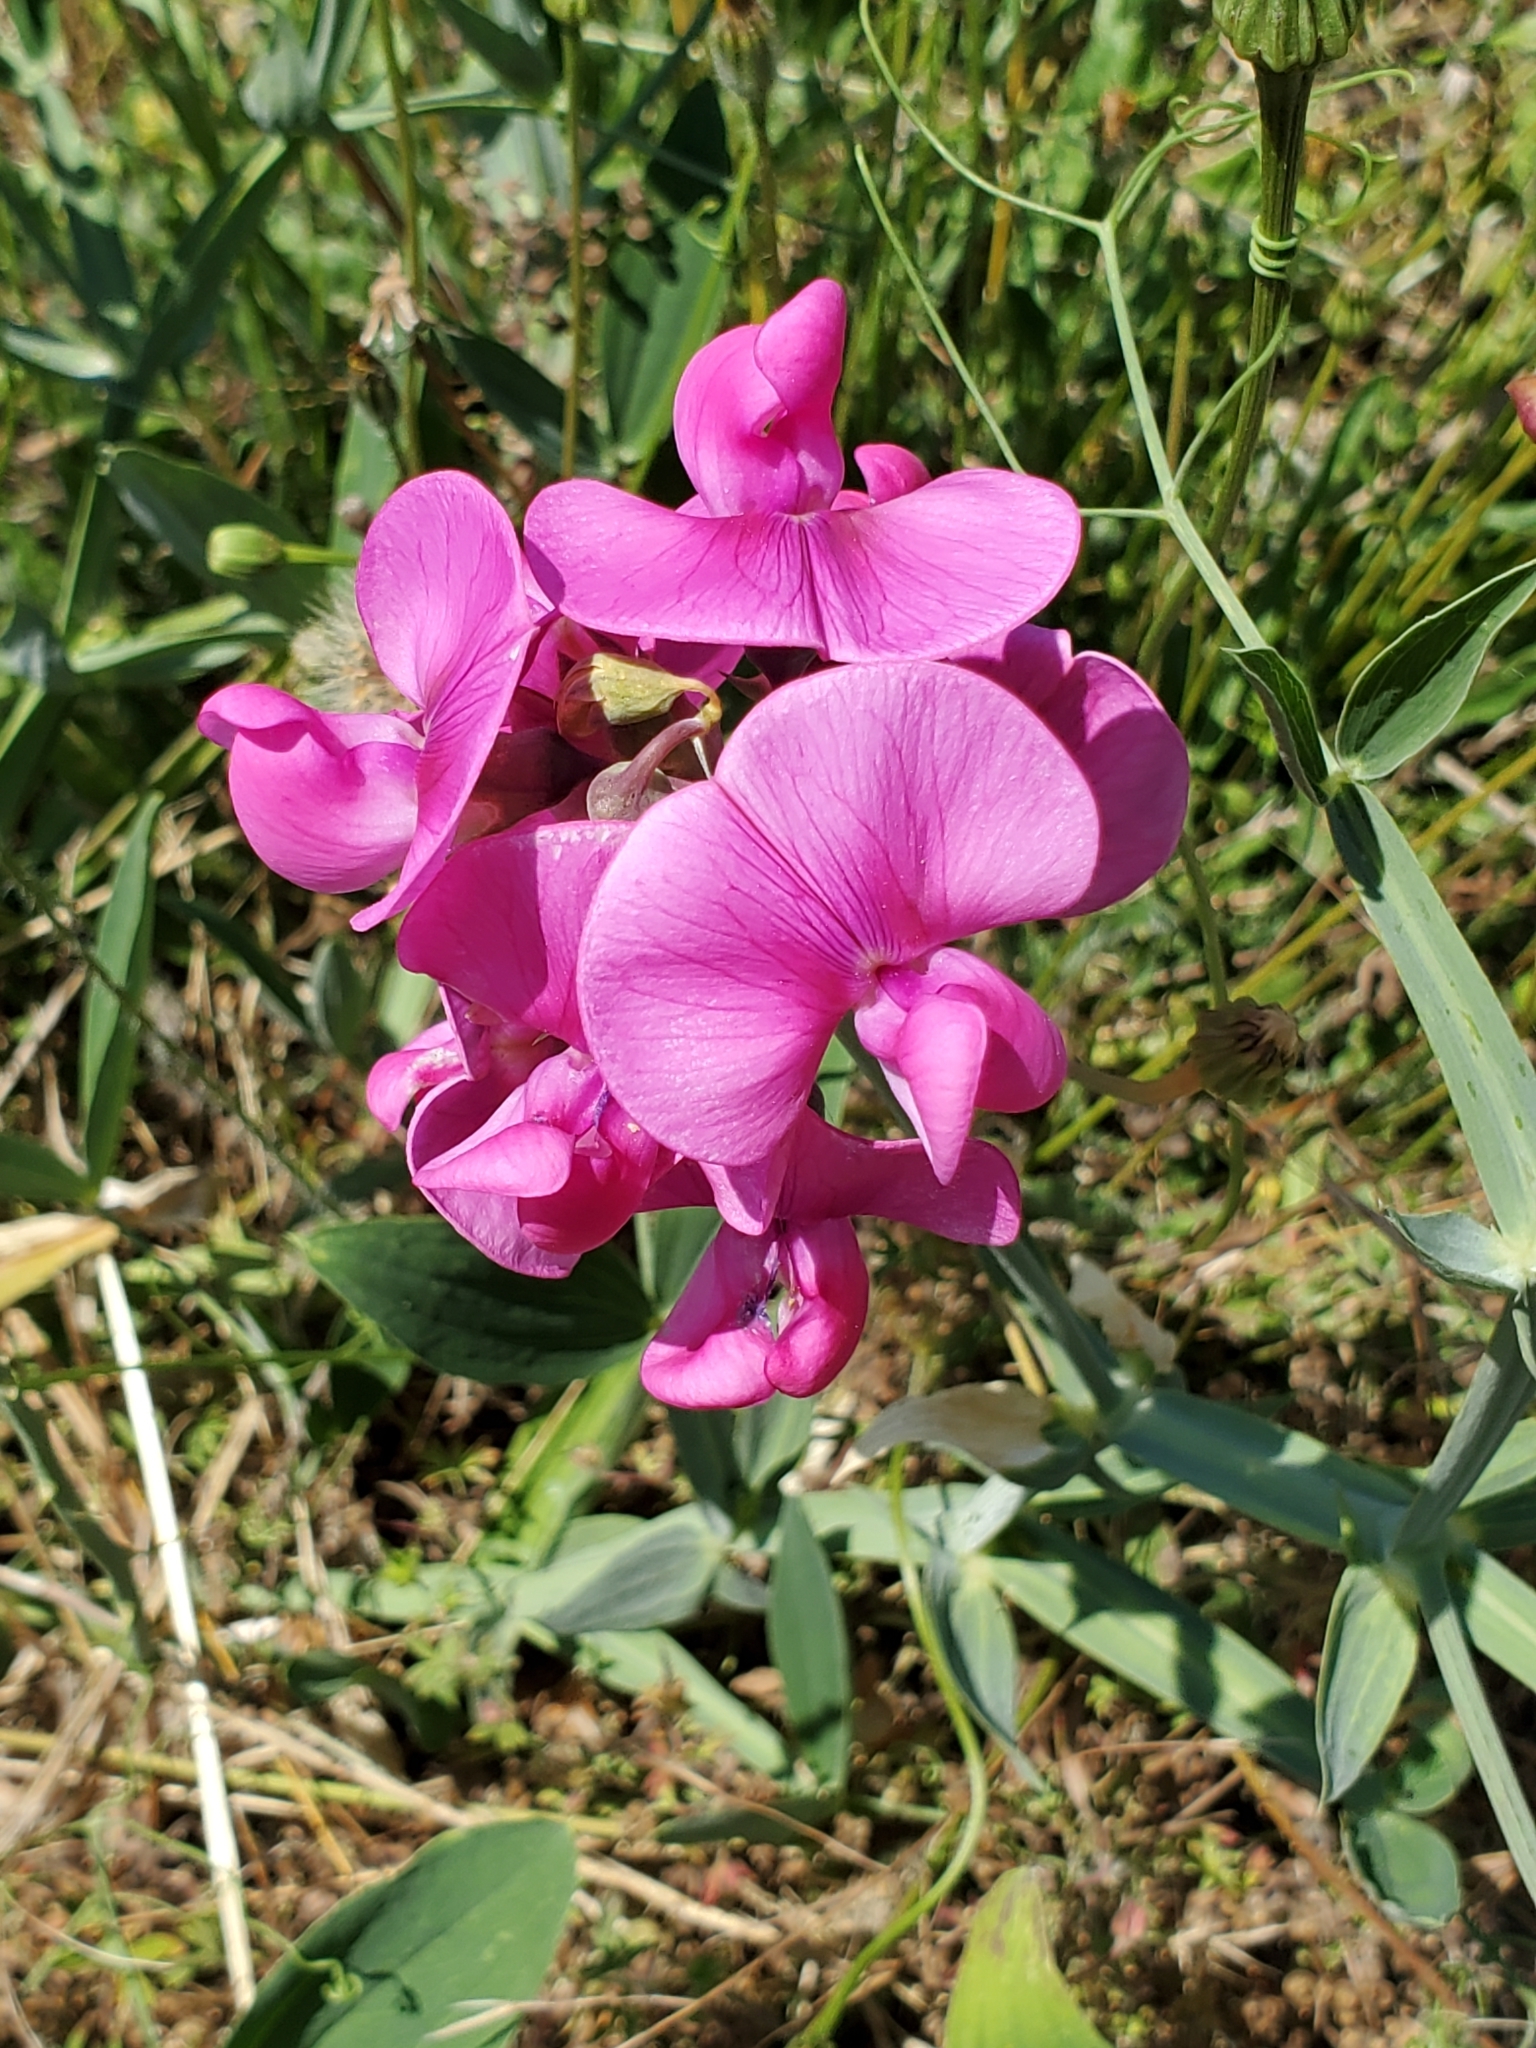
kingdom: Plantae
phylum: Tracheophyta
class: Magnoliopsida
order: Fabales
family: Fabaceae
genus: Lathyrus
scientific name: Lathyrus latifolius
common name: Perennial pea
